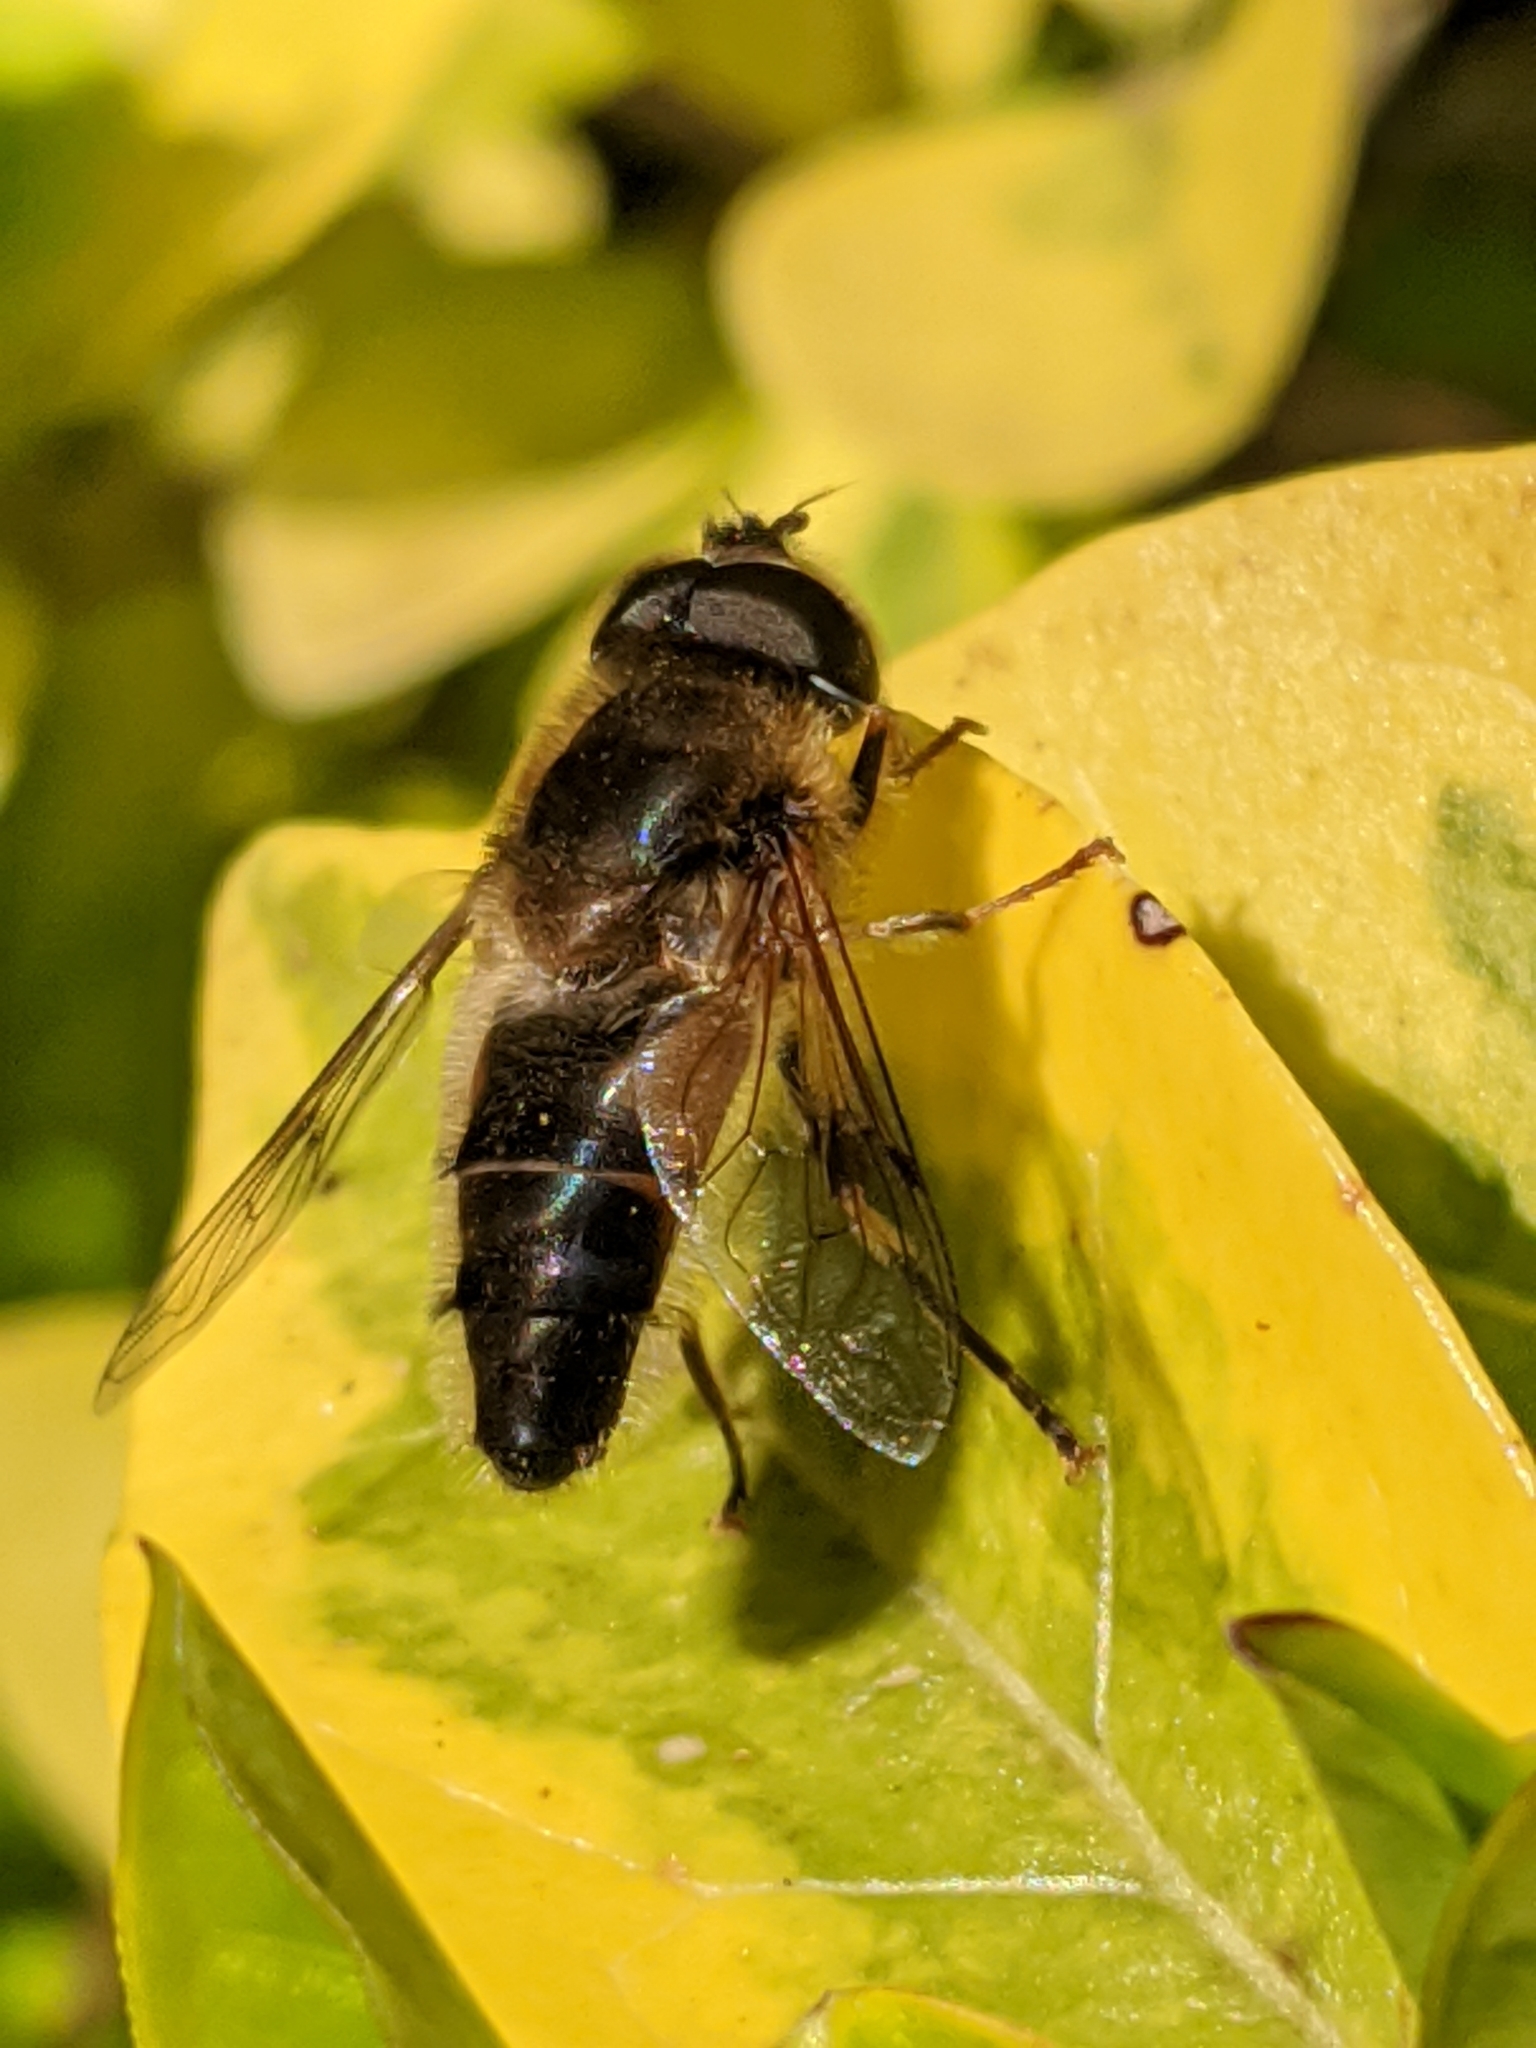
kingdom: Animalia
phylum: Arthropoda
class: Insecta
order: Diptera
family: Syrphidae
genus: Eristalis
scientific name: Eristalis pertinax
